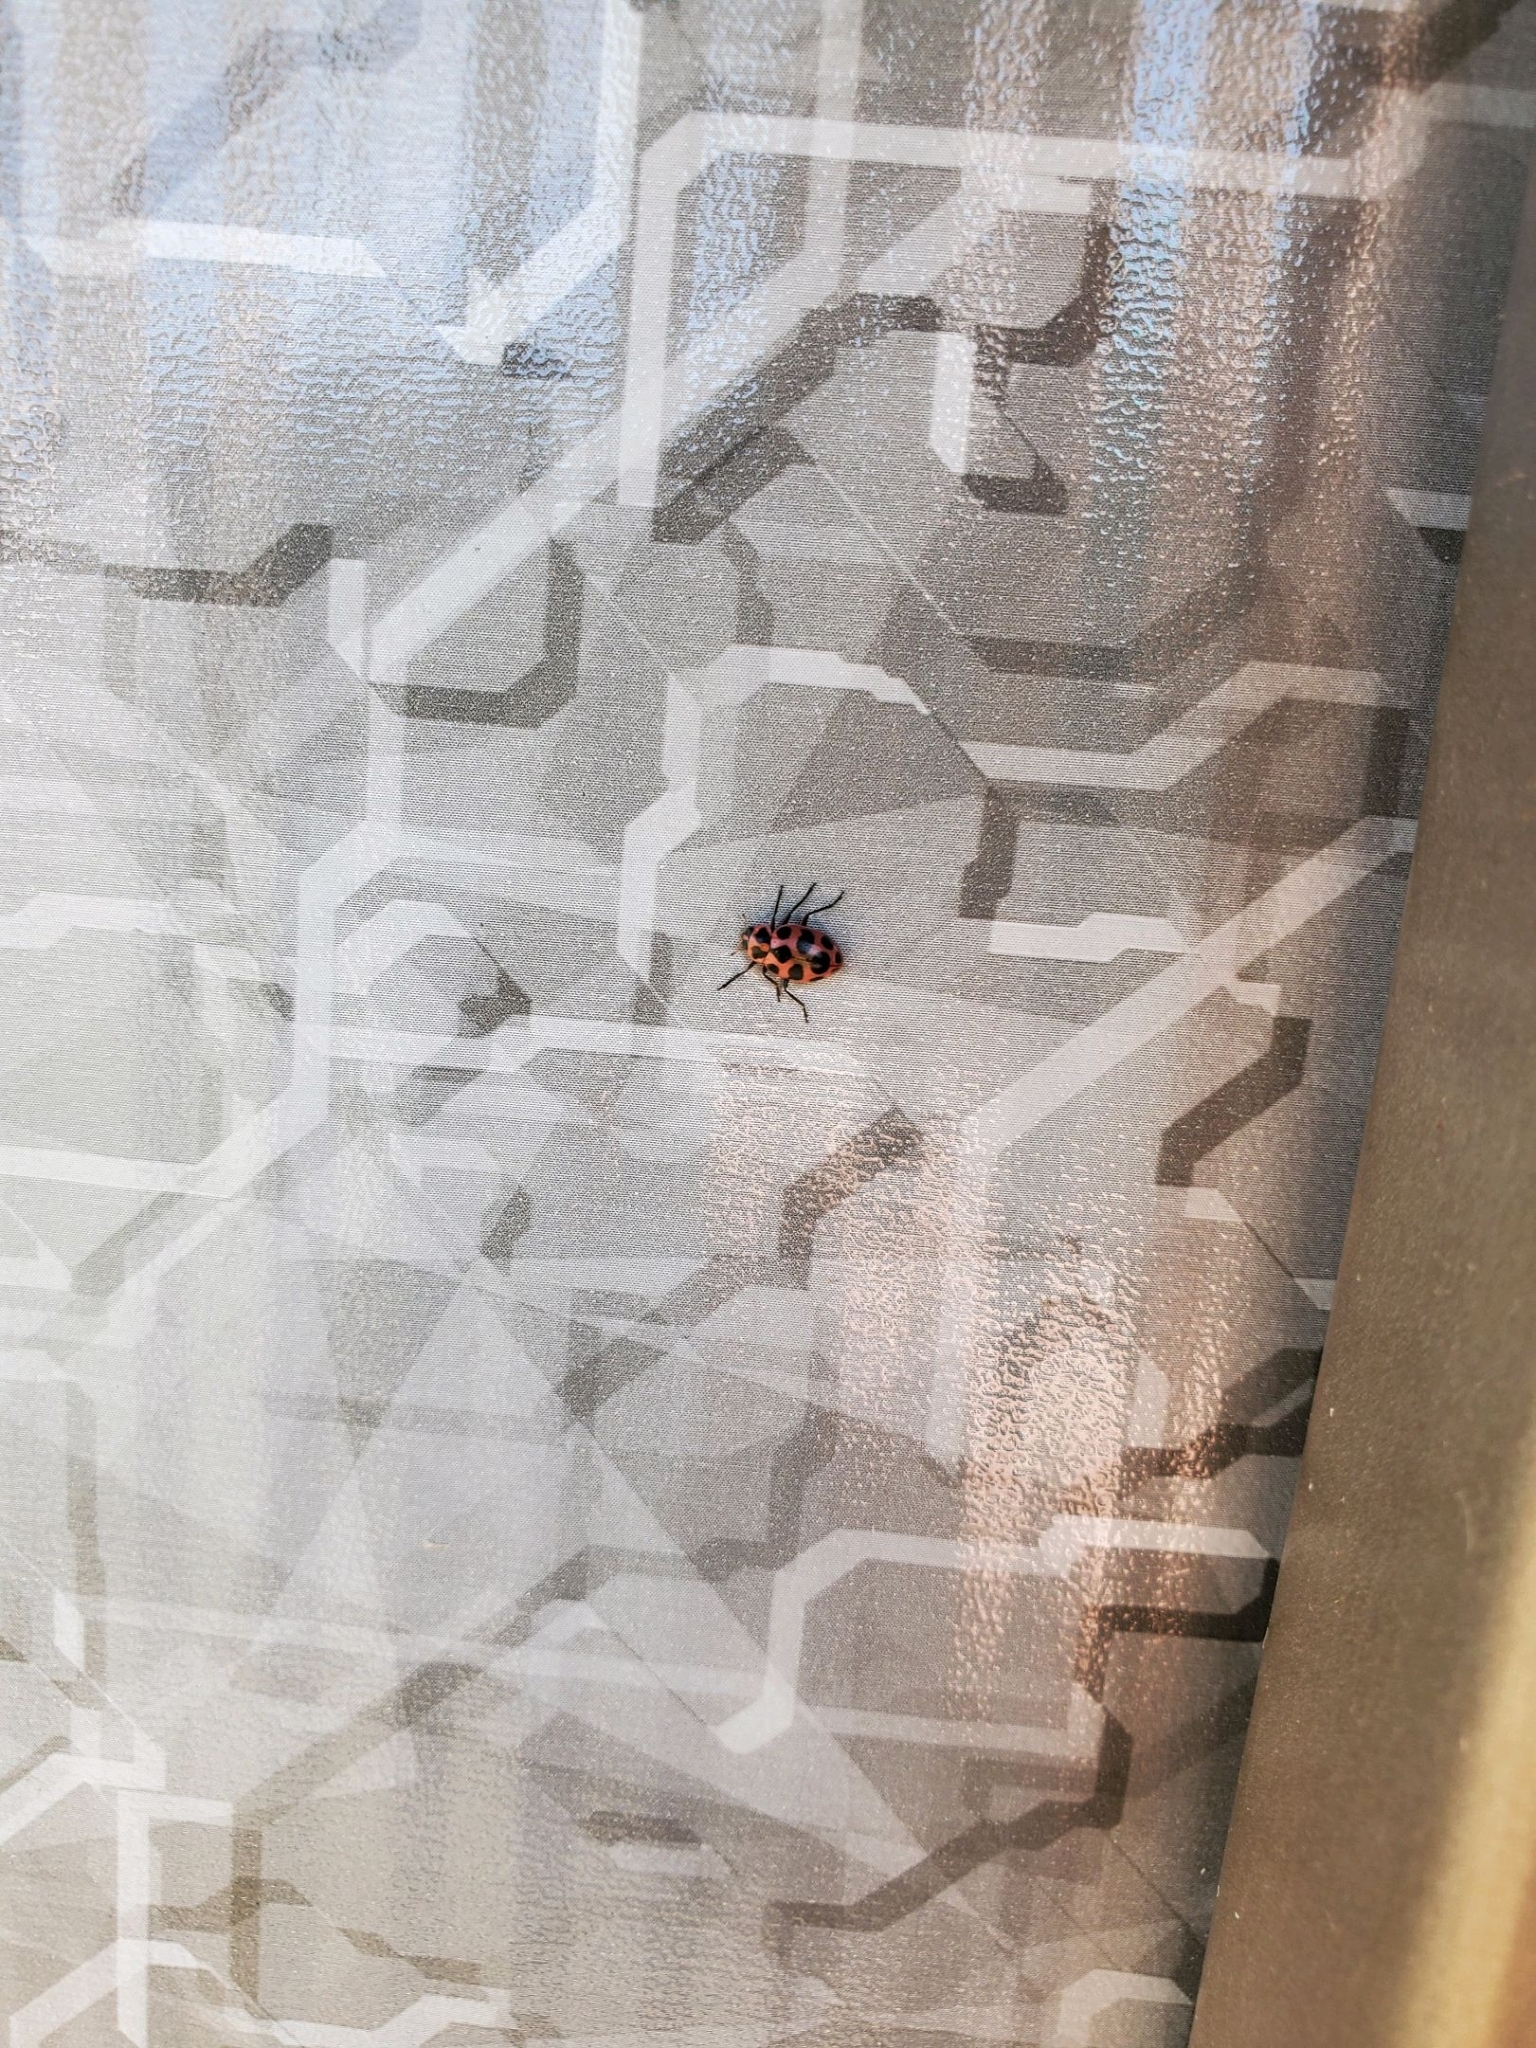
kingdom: Animalia
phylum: Arthropoda
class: Insecta
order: Coleoptera
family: Coccinellidae
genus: Coleomegilla
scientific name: Coleomegilla maculata
